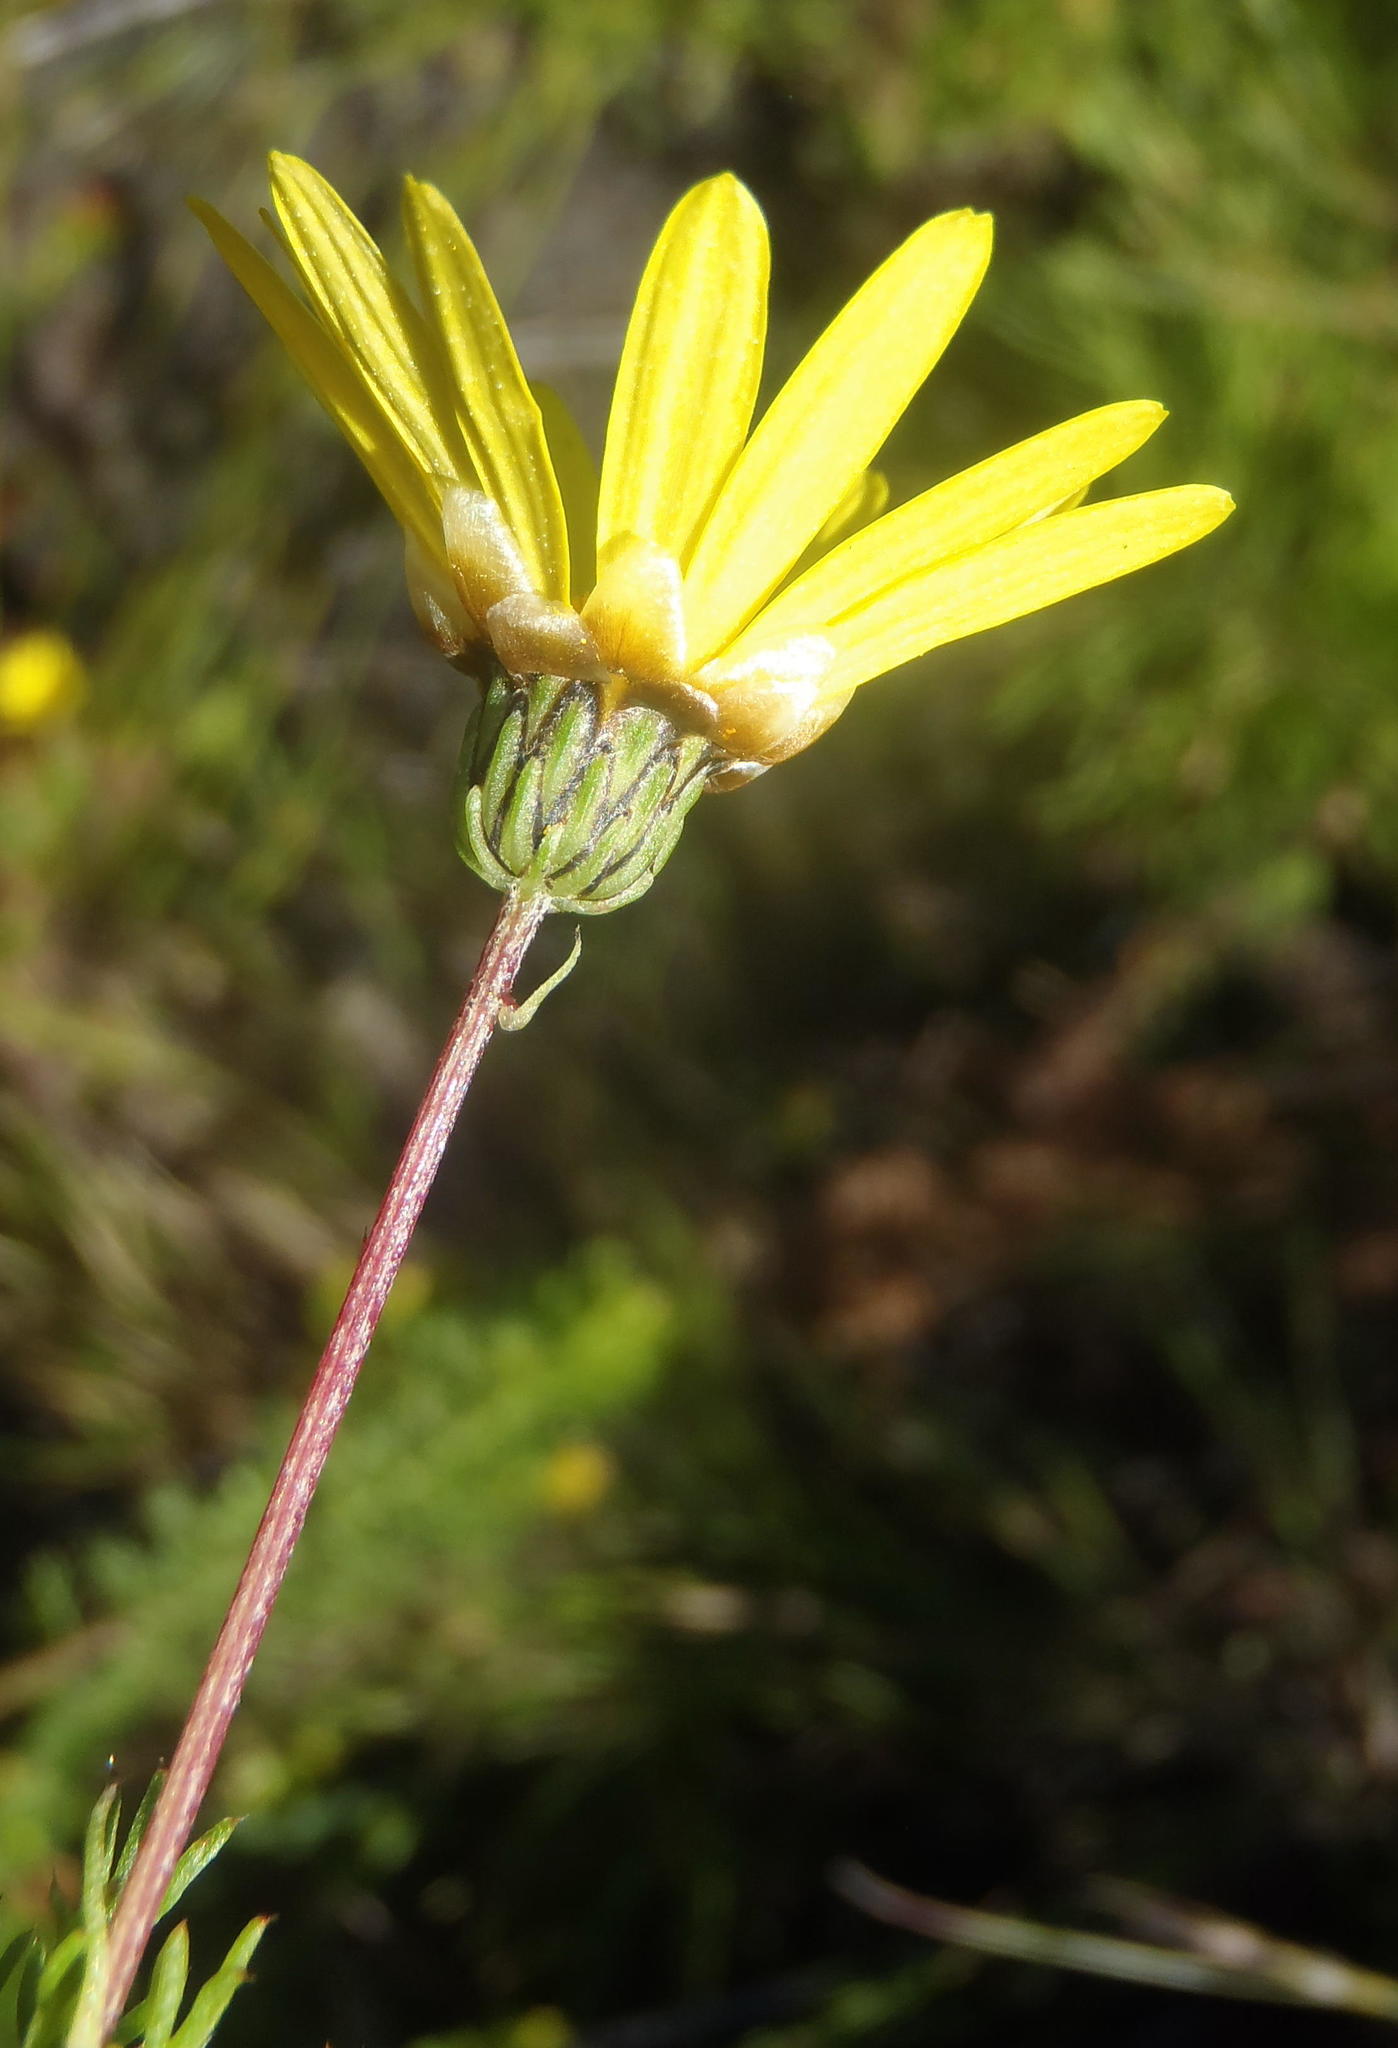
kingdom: Plantae
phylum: Tracheophyta
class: Magnoliopsida
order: Asterales
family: Asteraceae
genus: Ursinia
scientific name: Ursinia anethoides
